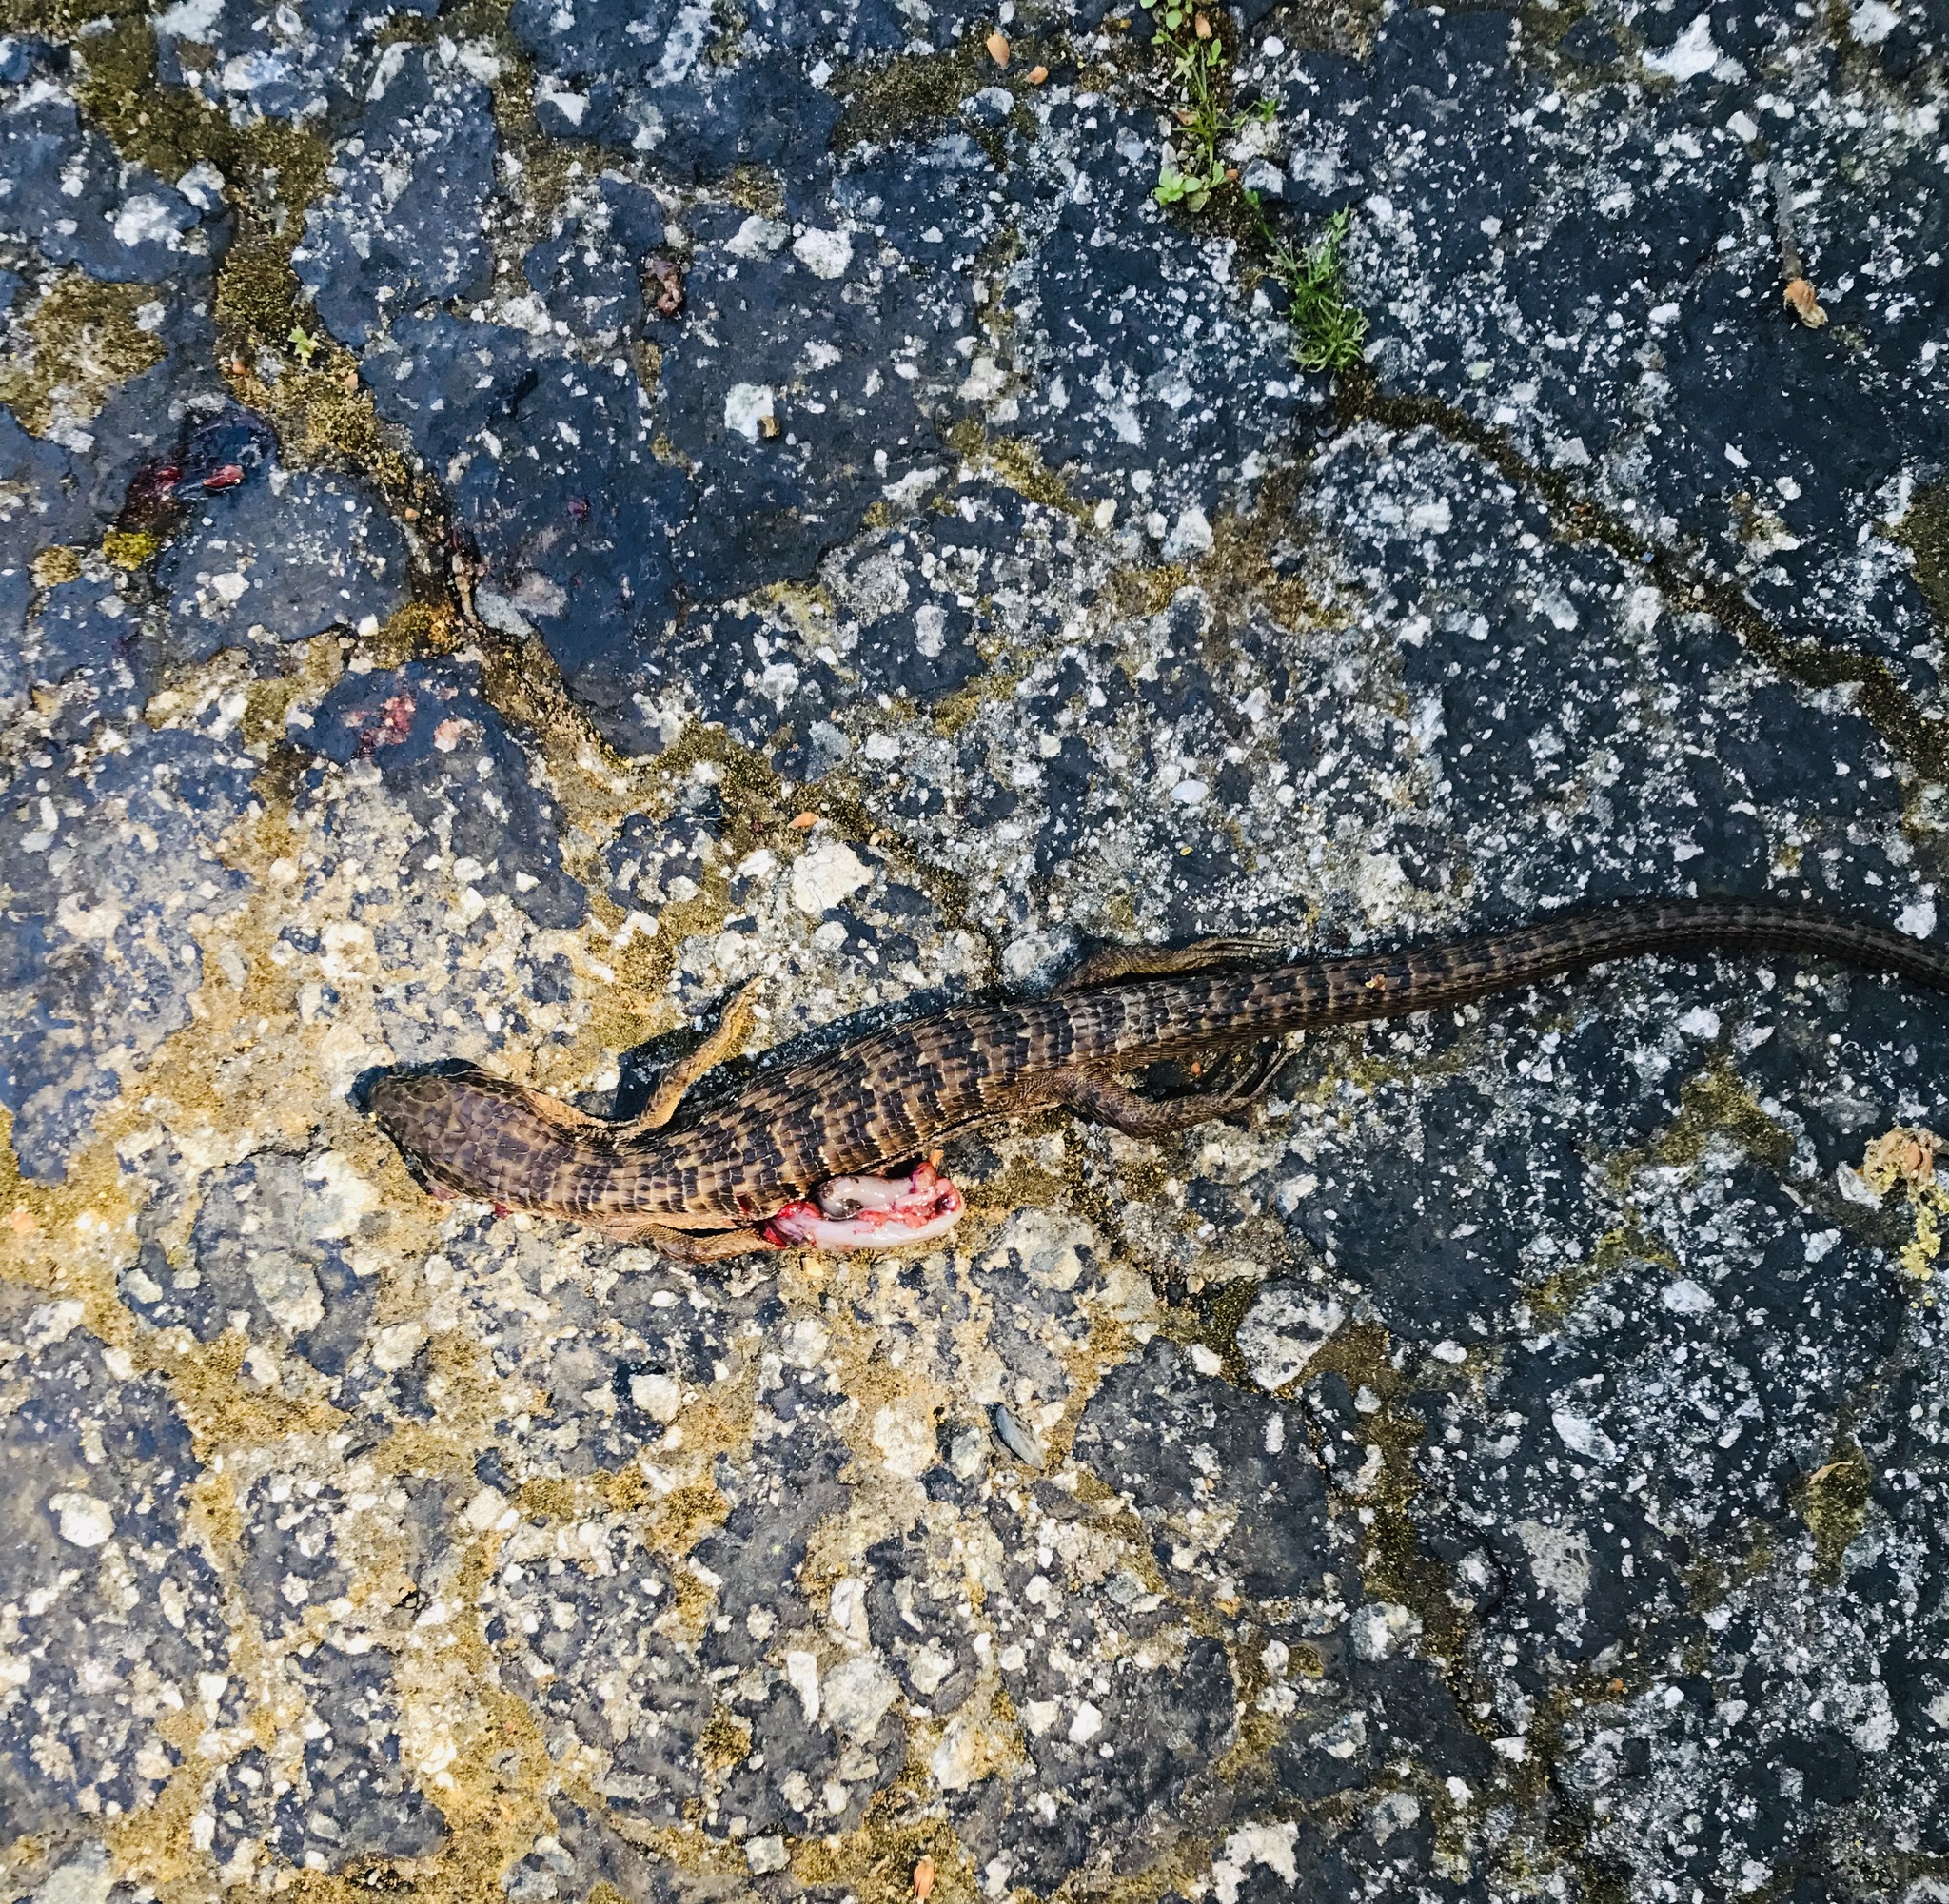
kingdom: Animalia
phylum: Chordata
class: Squamata
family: Anguidae
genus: Elgaria
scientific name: Elgaria multicarinata
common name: Southern alligator lizard
